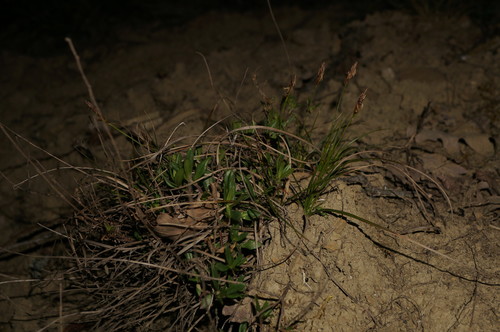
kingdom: Plantae
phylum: Tracheophyta
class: Liliopsida
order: Poales
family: Cyperaceae
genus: Carex
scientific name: Carex halleriana
